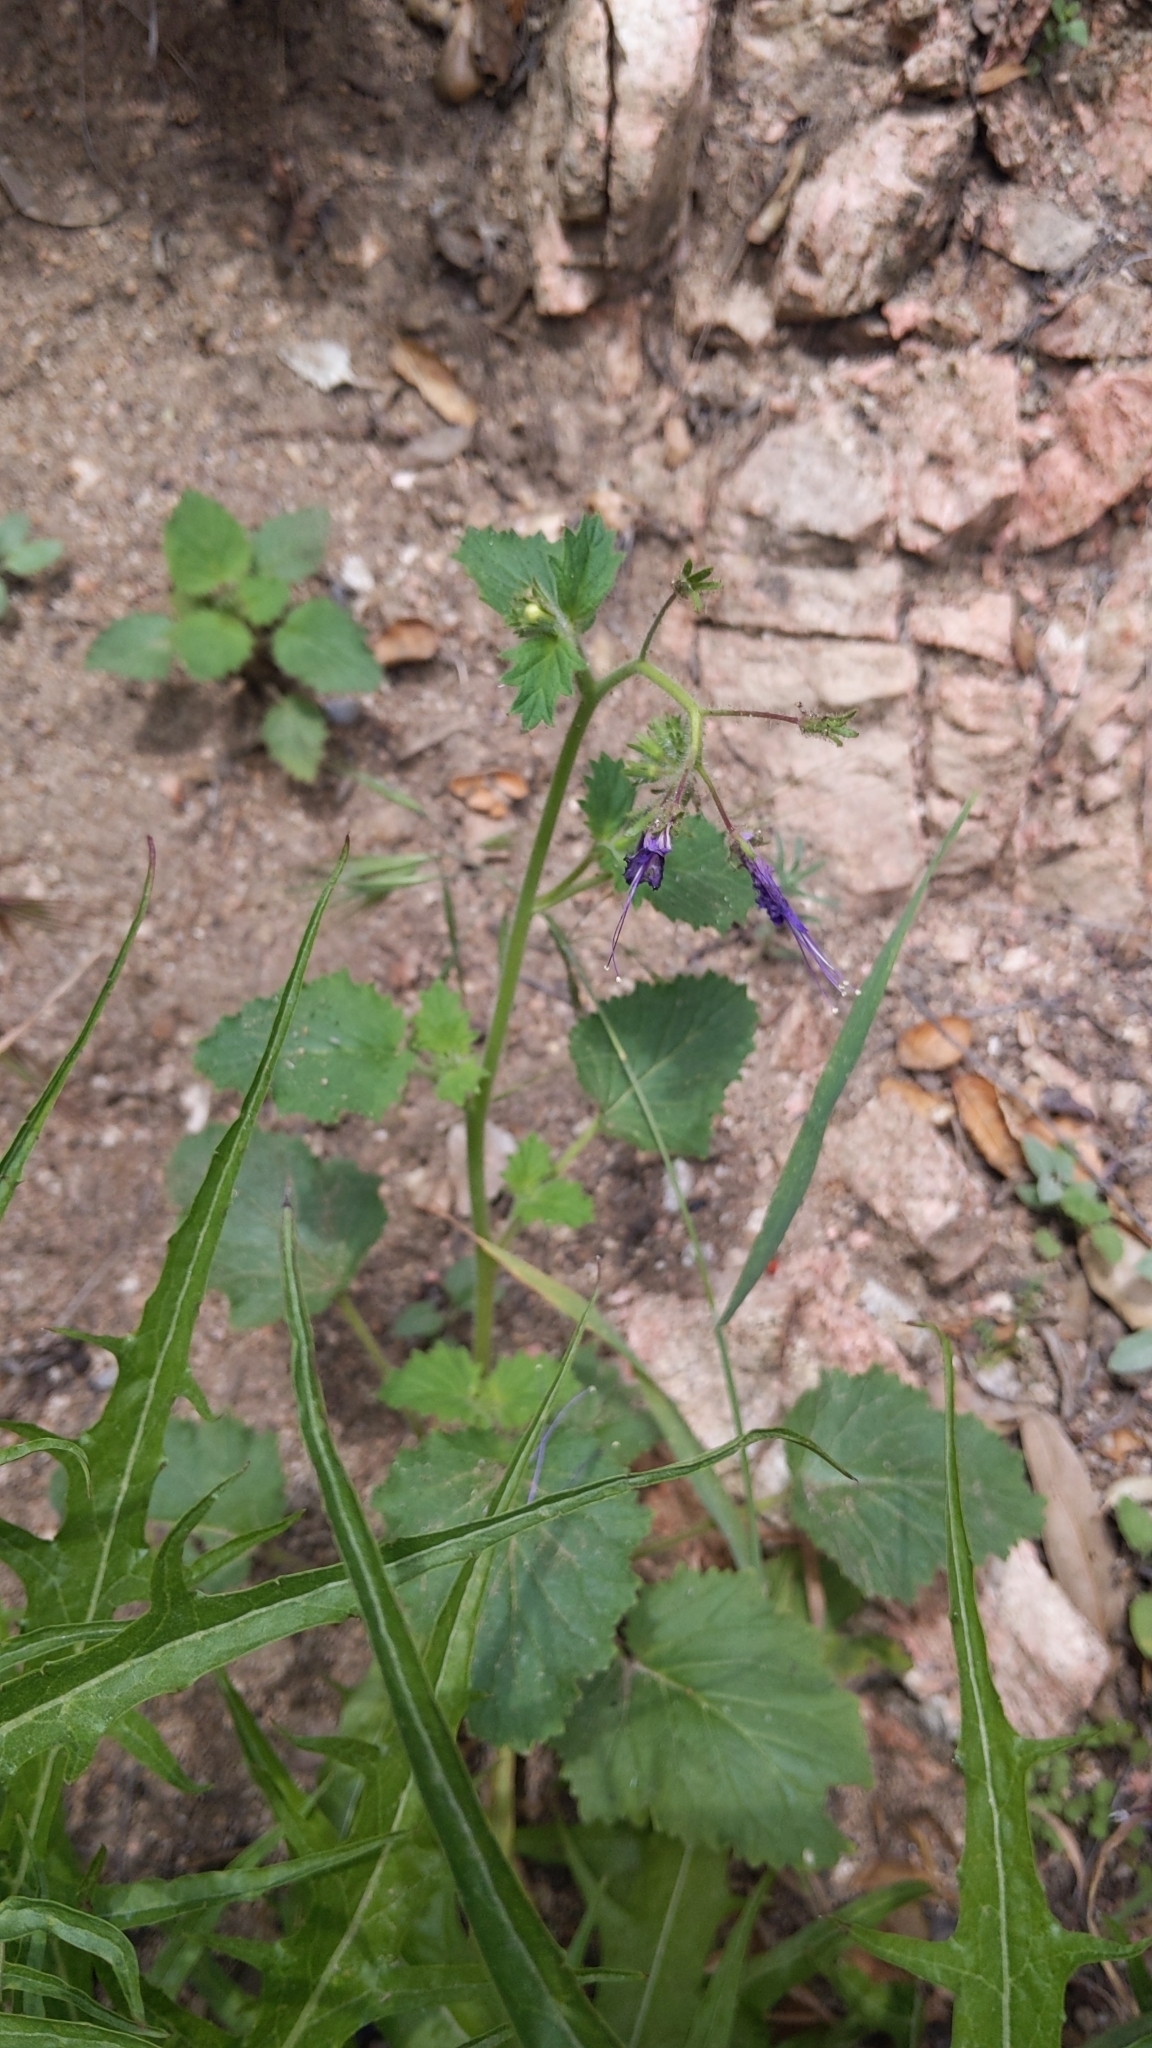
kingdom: Plantae
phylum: Tracheophyta
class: Magnoliopsida
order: Boraginales
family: Hydrophyllaceae
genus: Phacelia
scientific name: Phacelia minor
